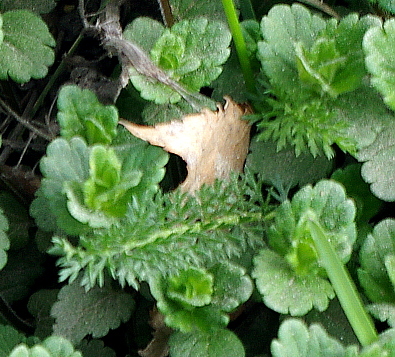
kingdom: Plantae
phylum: Tracheophyta
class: Magnoliopsida
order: Asterales
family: Asteraceae
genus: Achillea
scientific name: Achillea millefolium
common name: Yarrow
